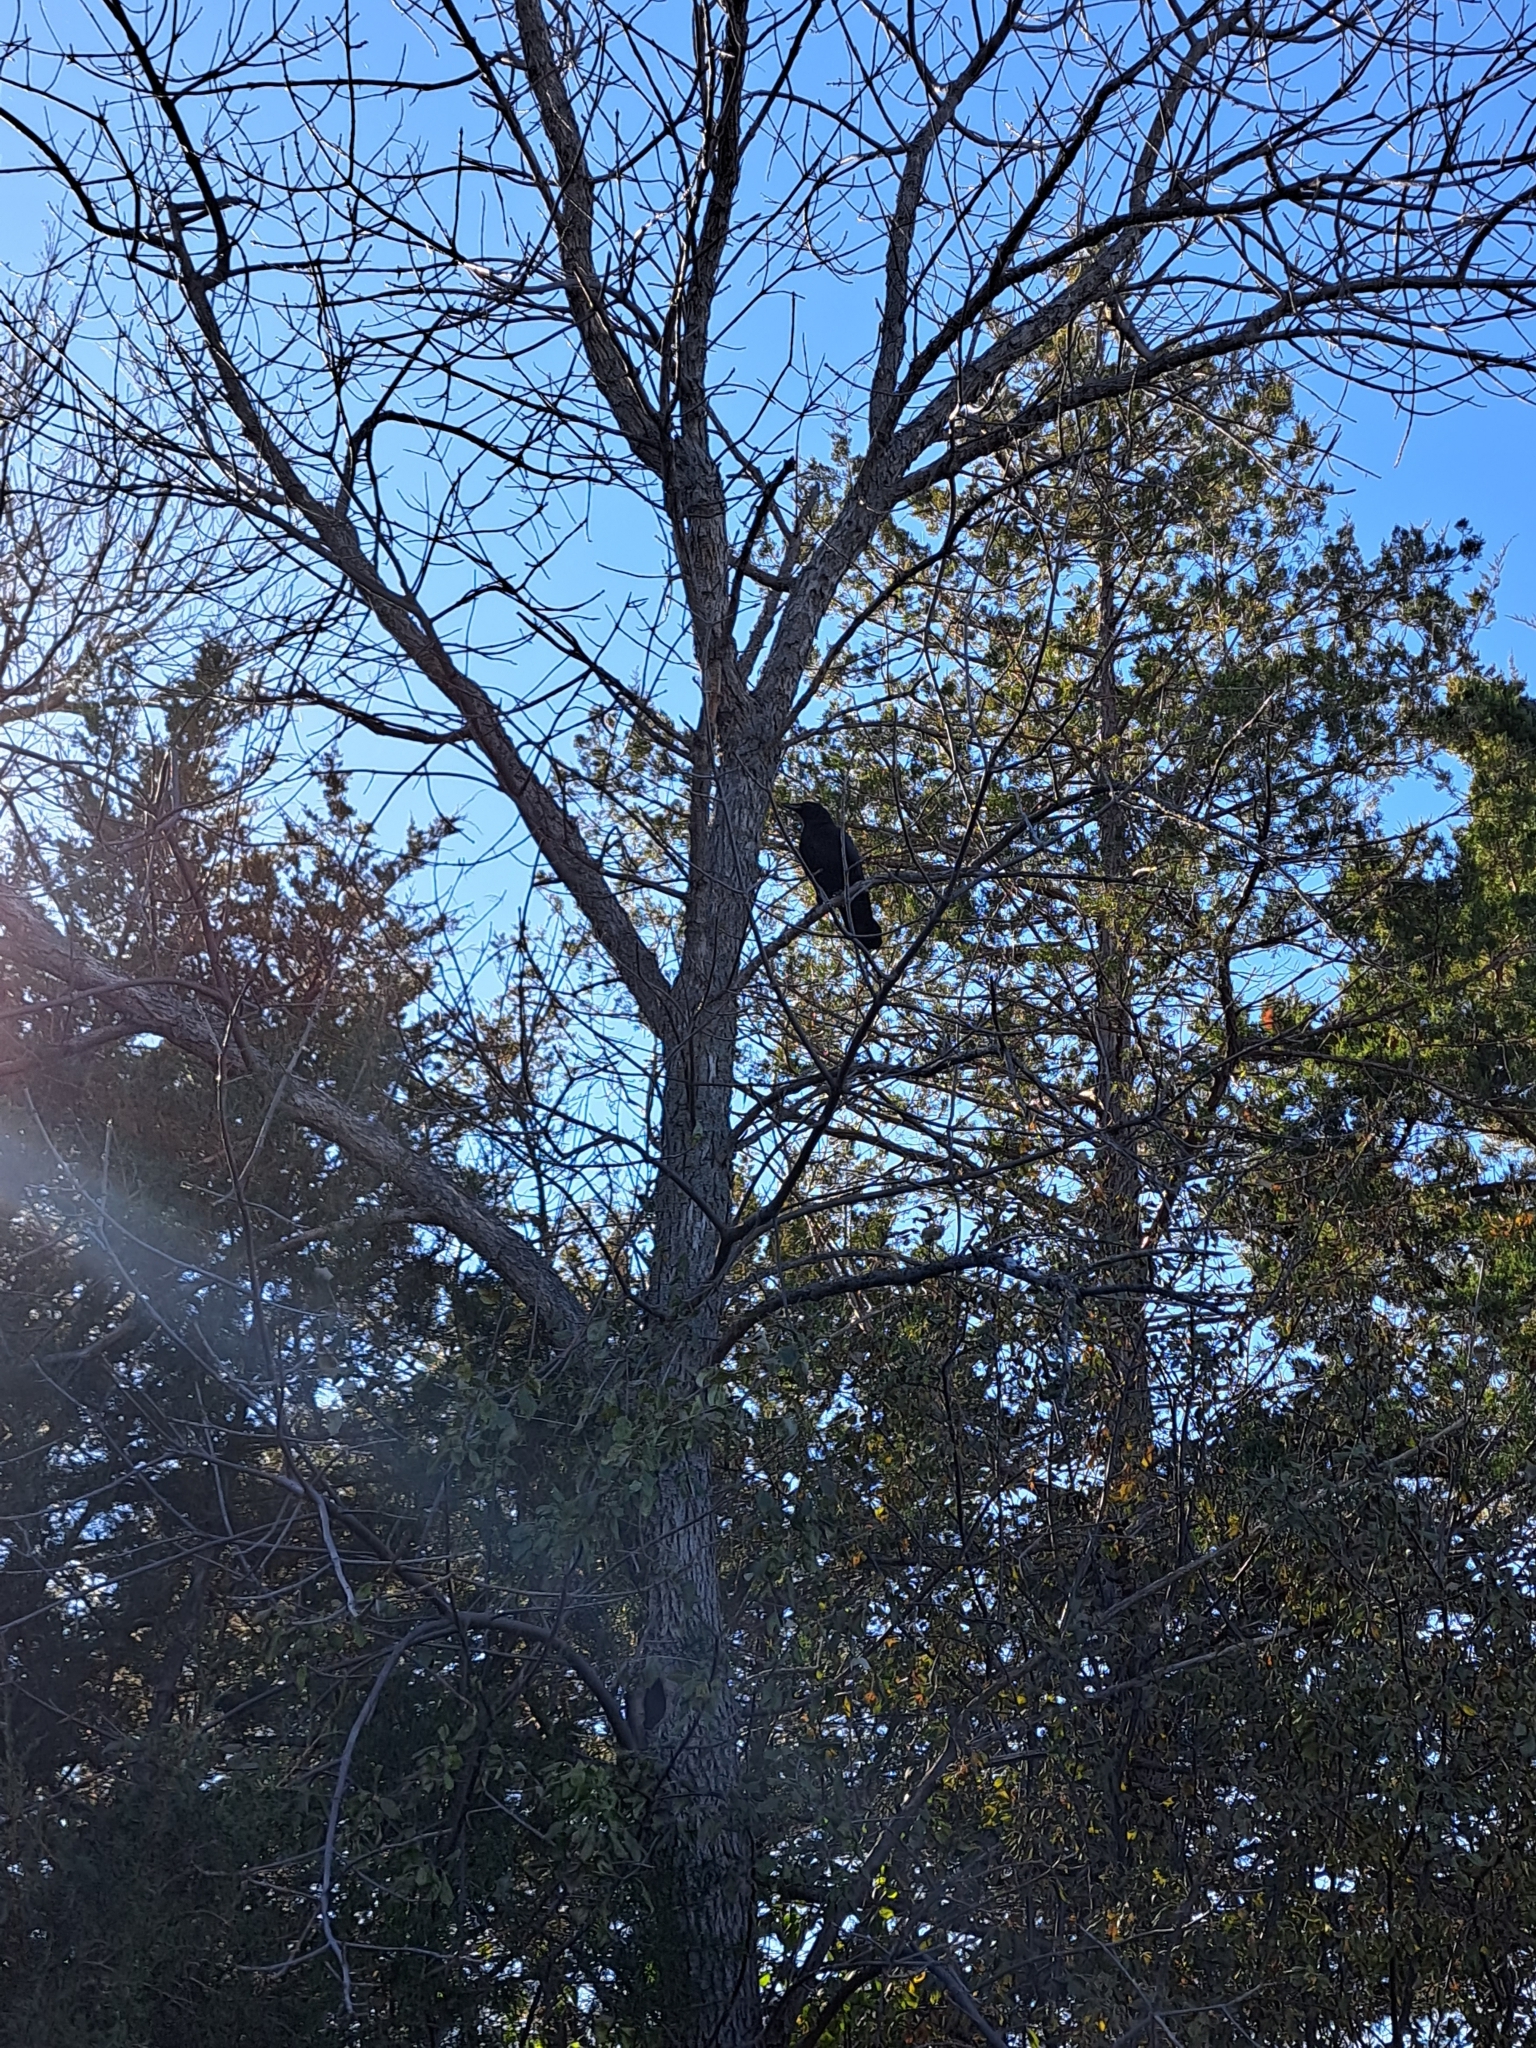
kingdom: Animalia
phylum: Chordata
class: Aves
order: Passeriformes
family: Corvidae
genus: Corvus
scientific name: Corvus brachyrhynchos
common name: American crow
